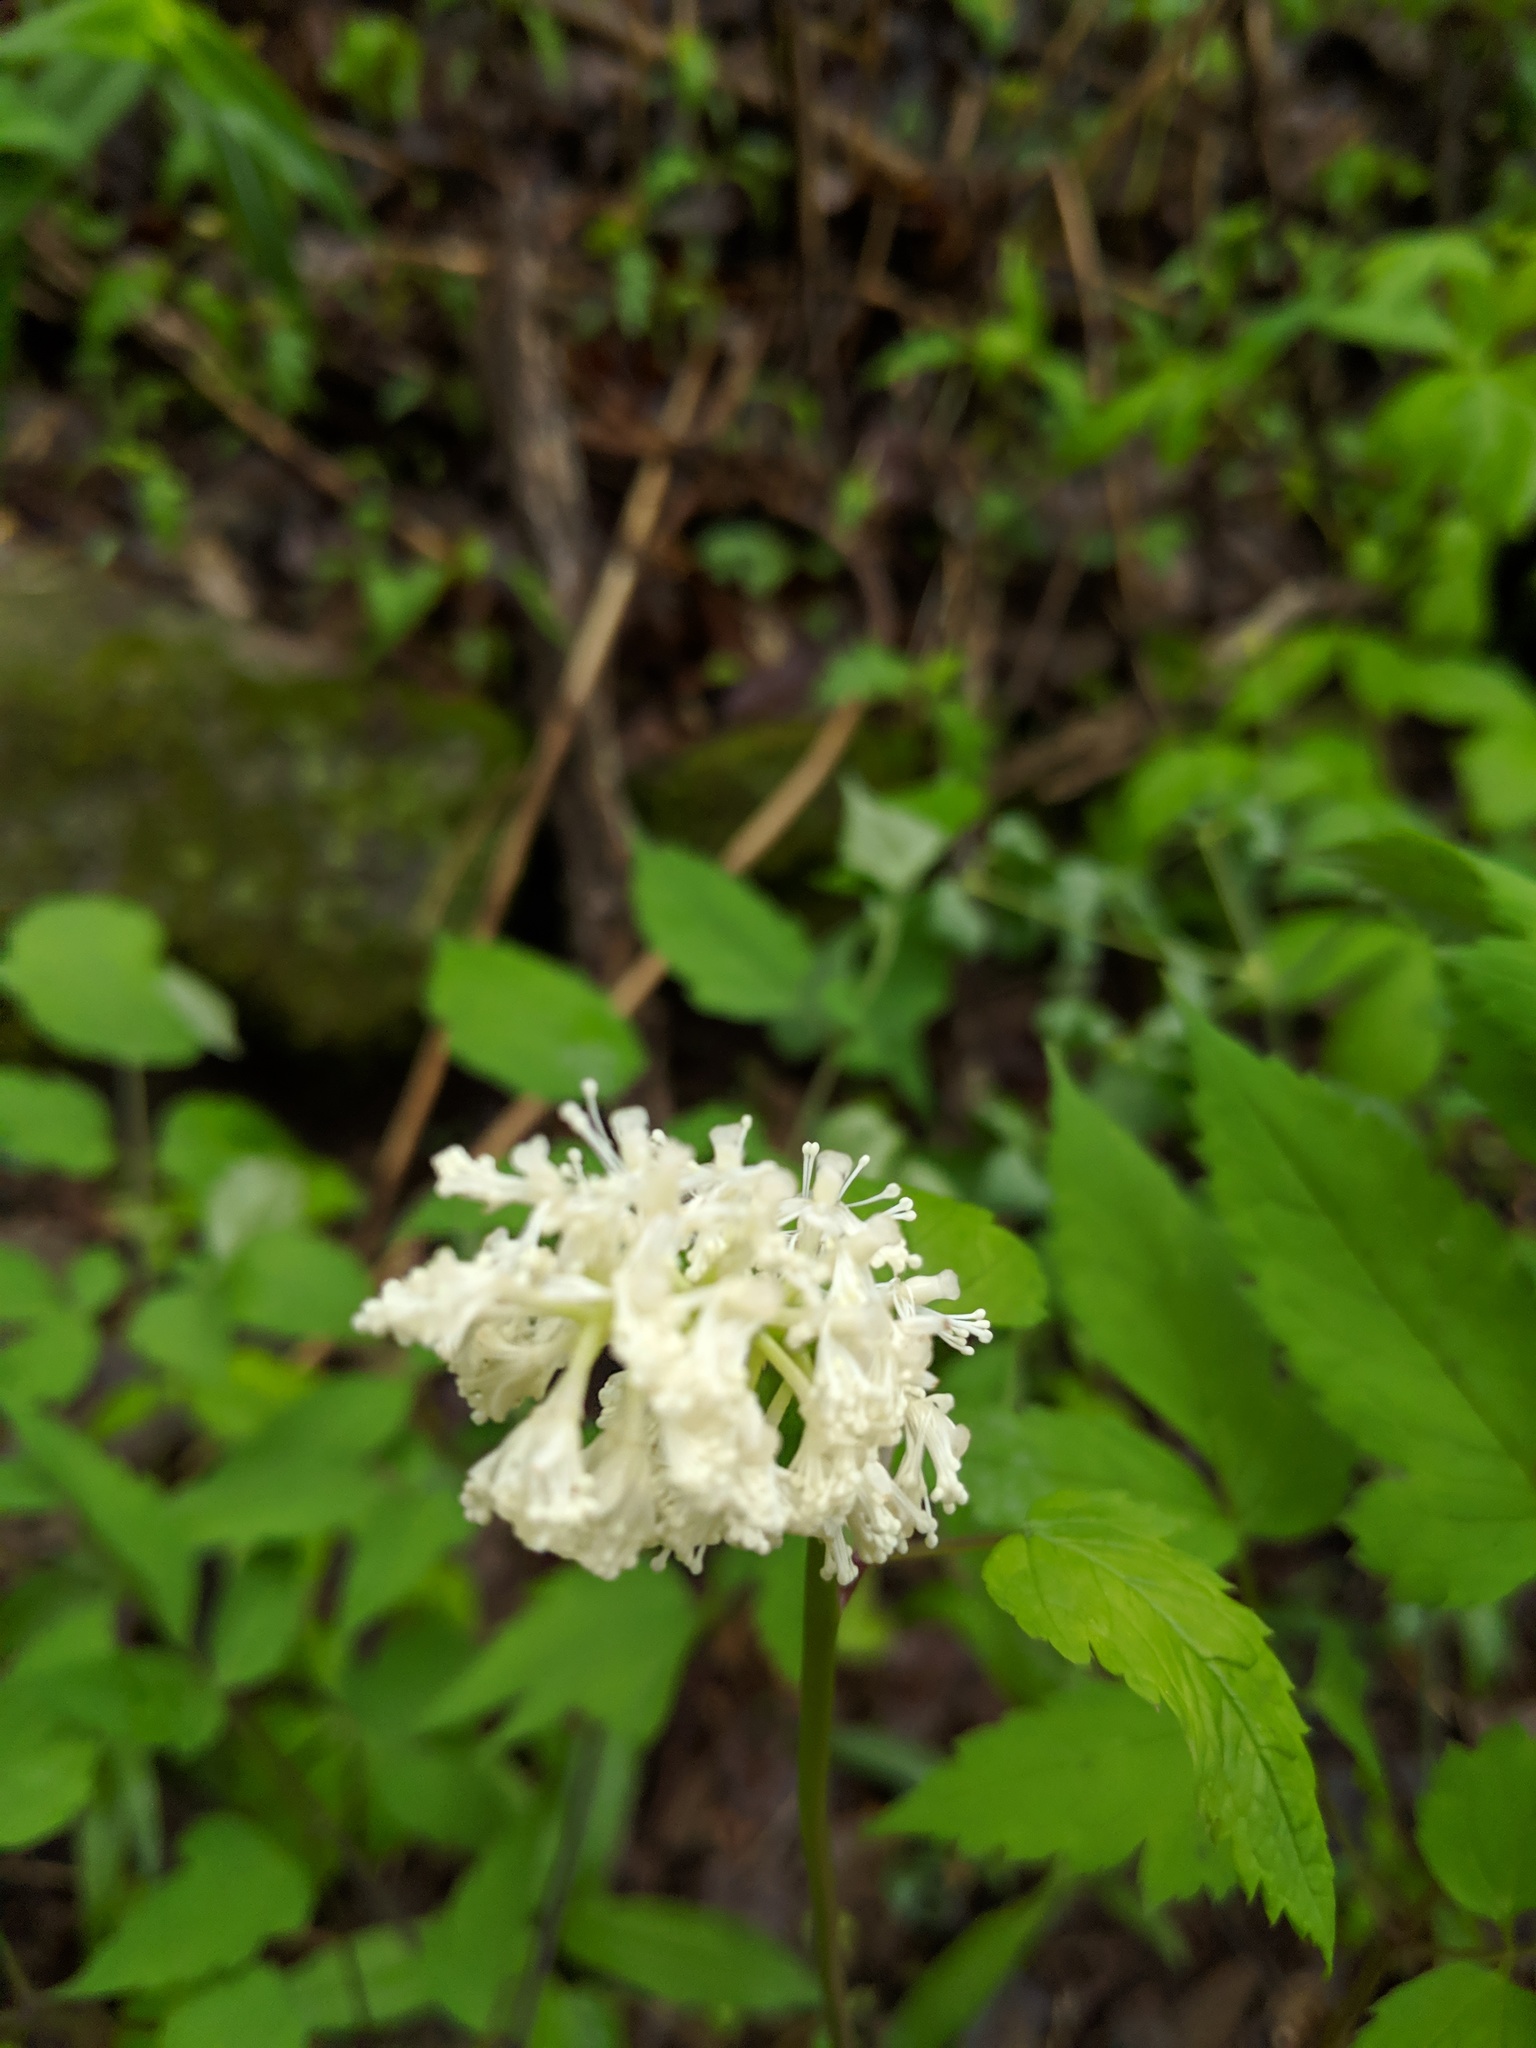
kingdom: Plantae
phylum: Tracheophyta
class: Magnoliopsida
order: Ranunculales
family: Ranunculaceae
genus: Actaea
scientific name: Actaea pachypoda
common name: Doll's-eyes
